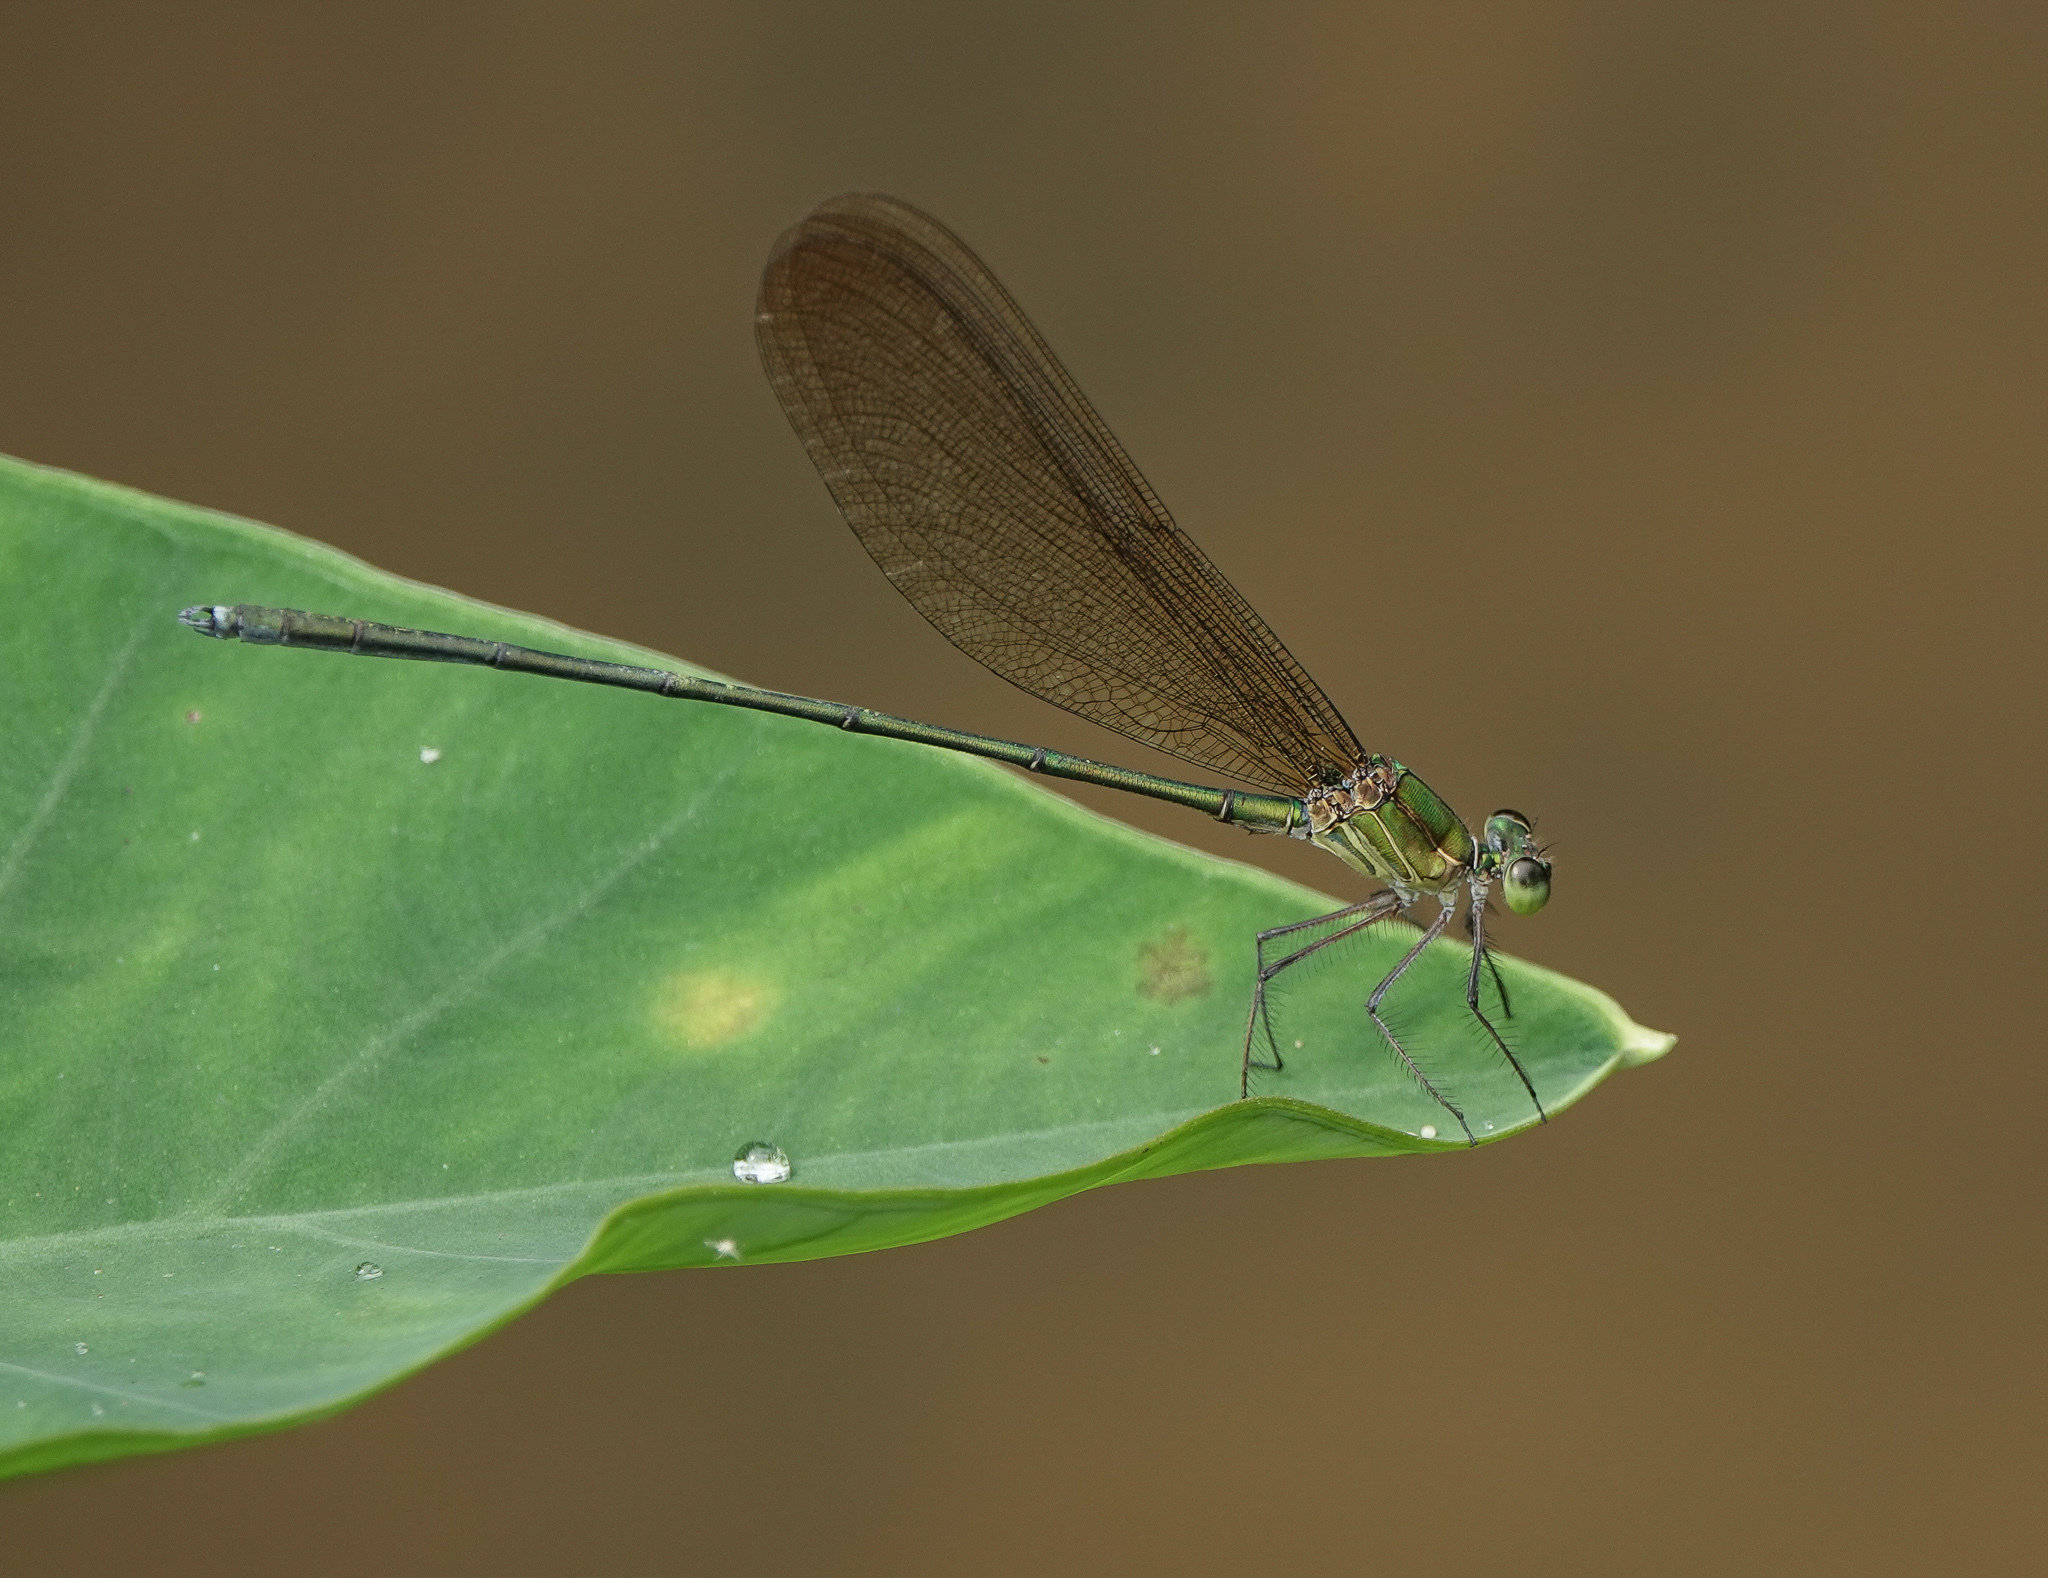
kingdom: Animalia
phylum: Arthropoda
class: Insecta
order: Odonata
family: Calopterygidae
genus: Vestalis
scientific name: Vestalis gracilis
